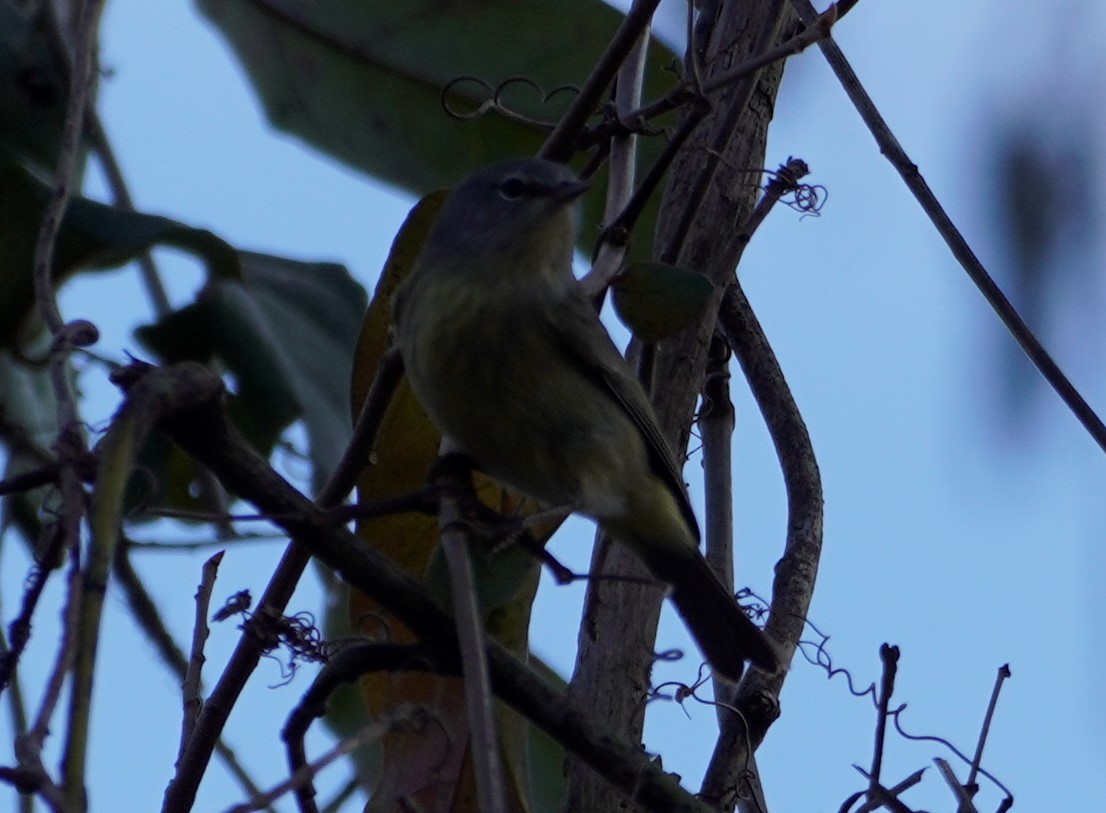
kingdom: Animalia
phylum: Chordata
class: Aves
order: Passeriformes
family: Parulidae
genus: Setophaga
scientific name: Setophaga pinus
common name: Pine warbler
